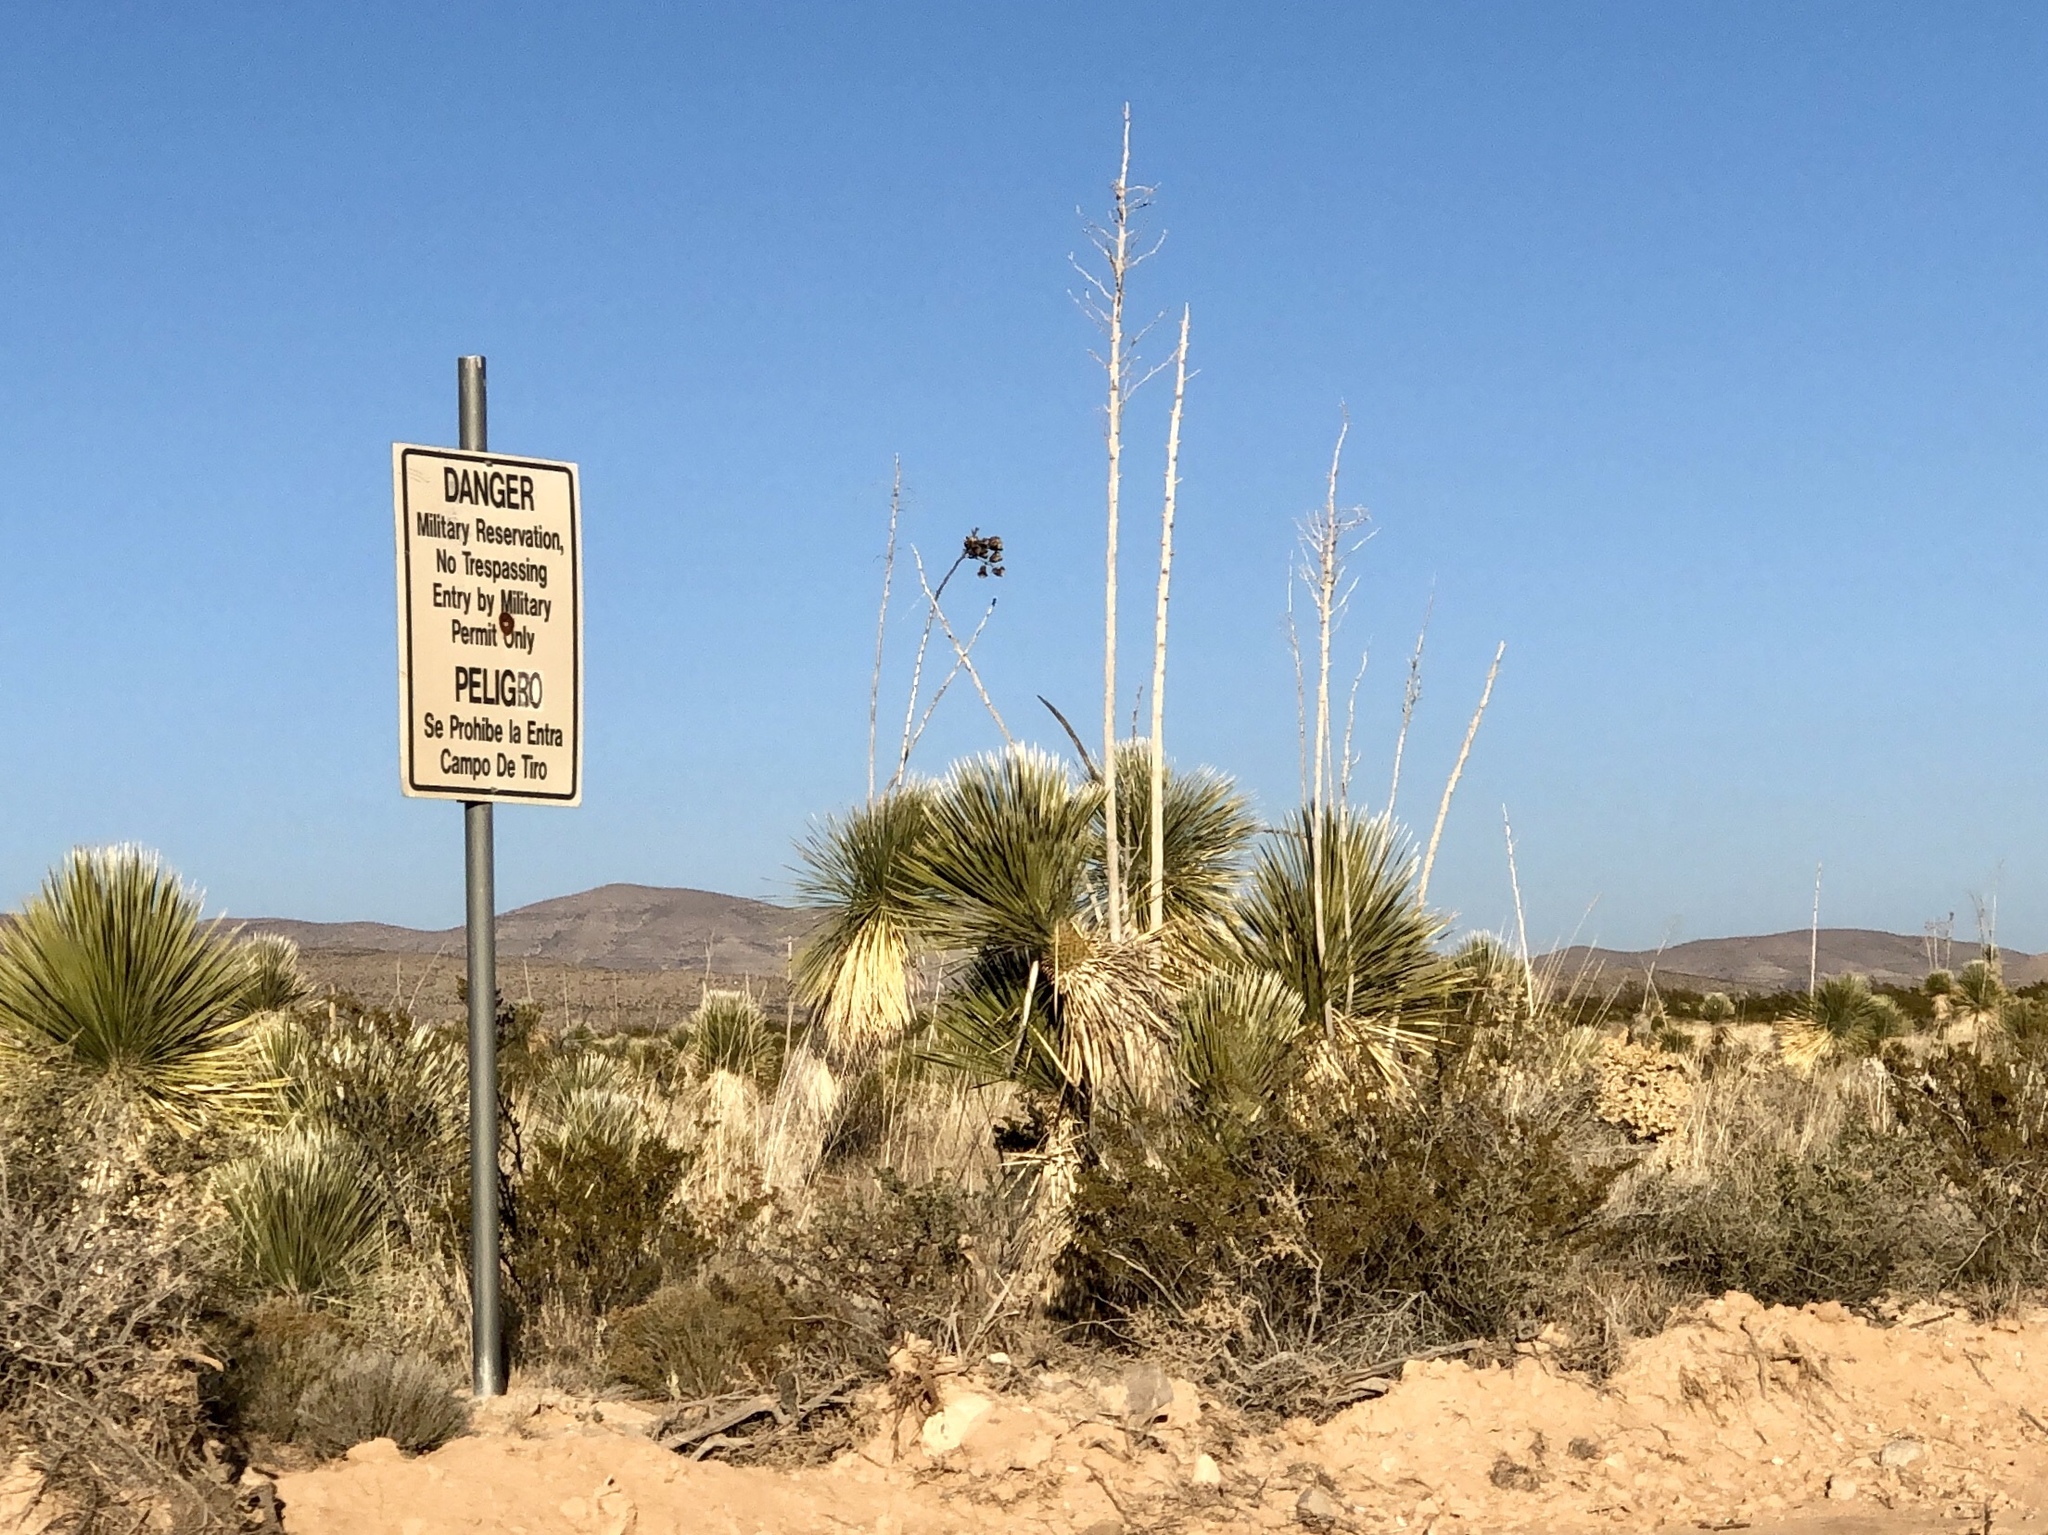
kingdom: Plantae
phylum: Tracheophyta
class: Liliopsida
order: Asparagales
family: Asparagaceae
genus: Yucca
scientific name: Yucca elata
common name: Palmella
